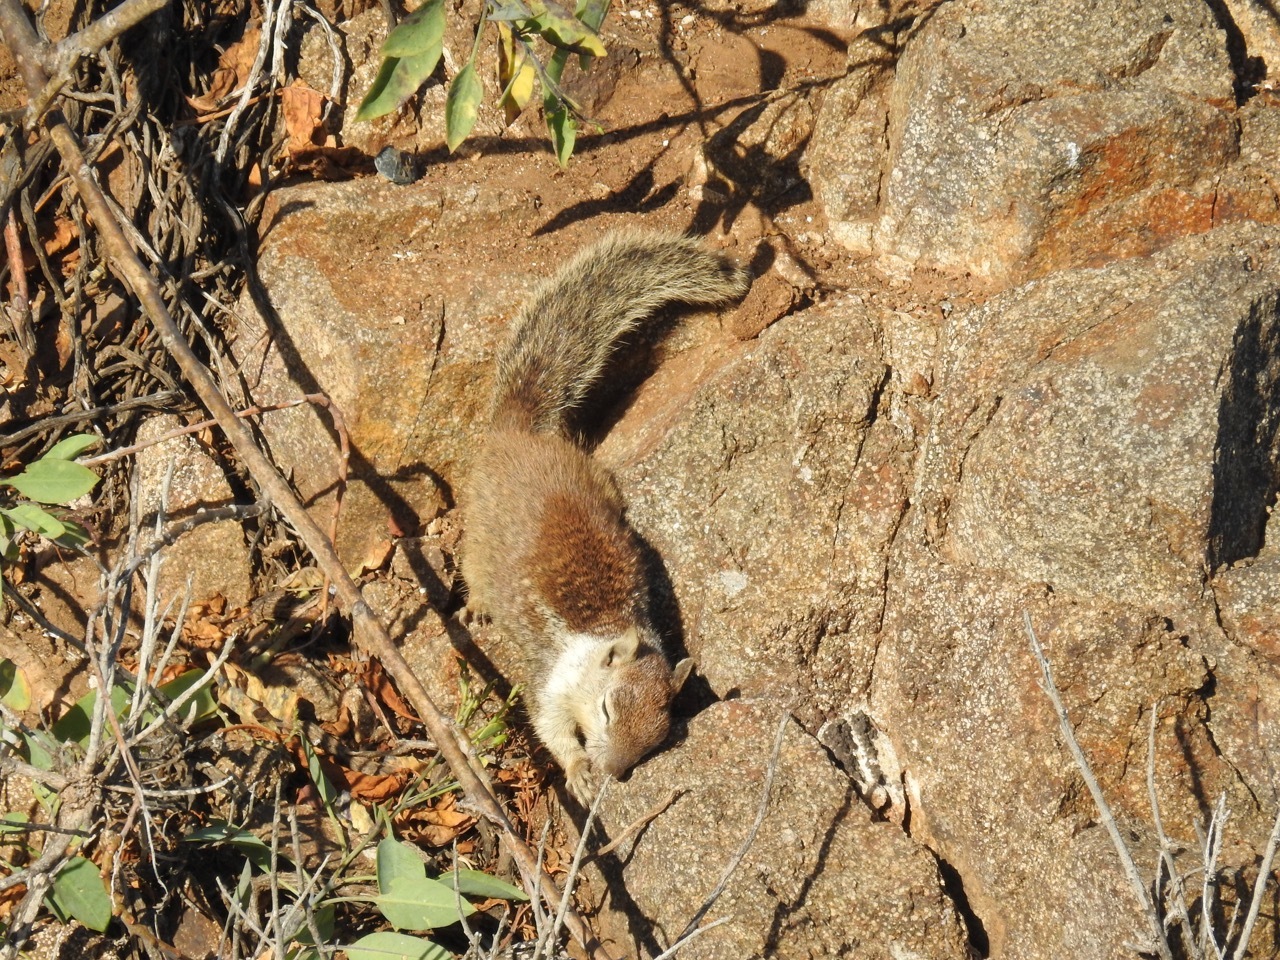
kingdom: Animalia
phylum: Chordata
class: Mammalia
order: Rodentia
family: Sciuridae
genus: Otospermophilus
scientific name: Otospermophilus beecheyi
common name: California ground squirrel
